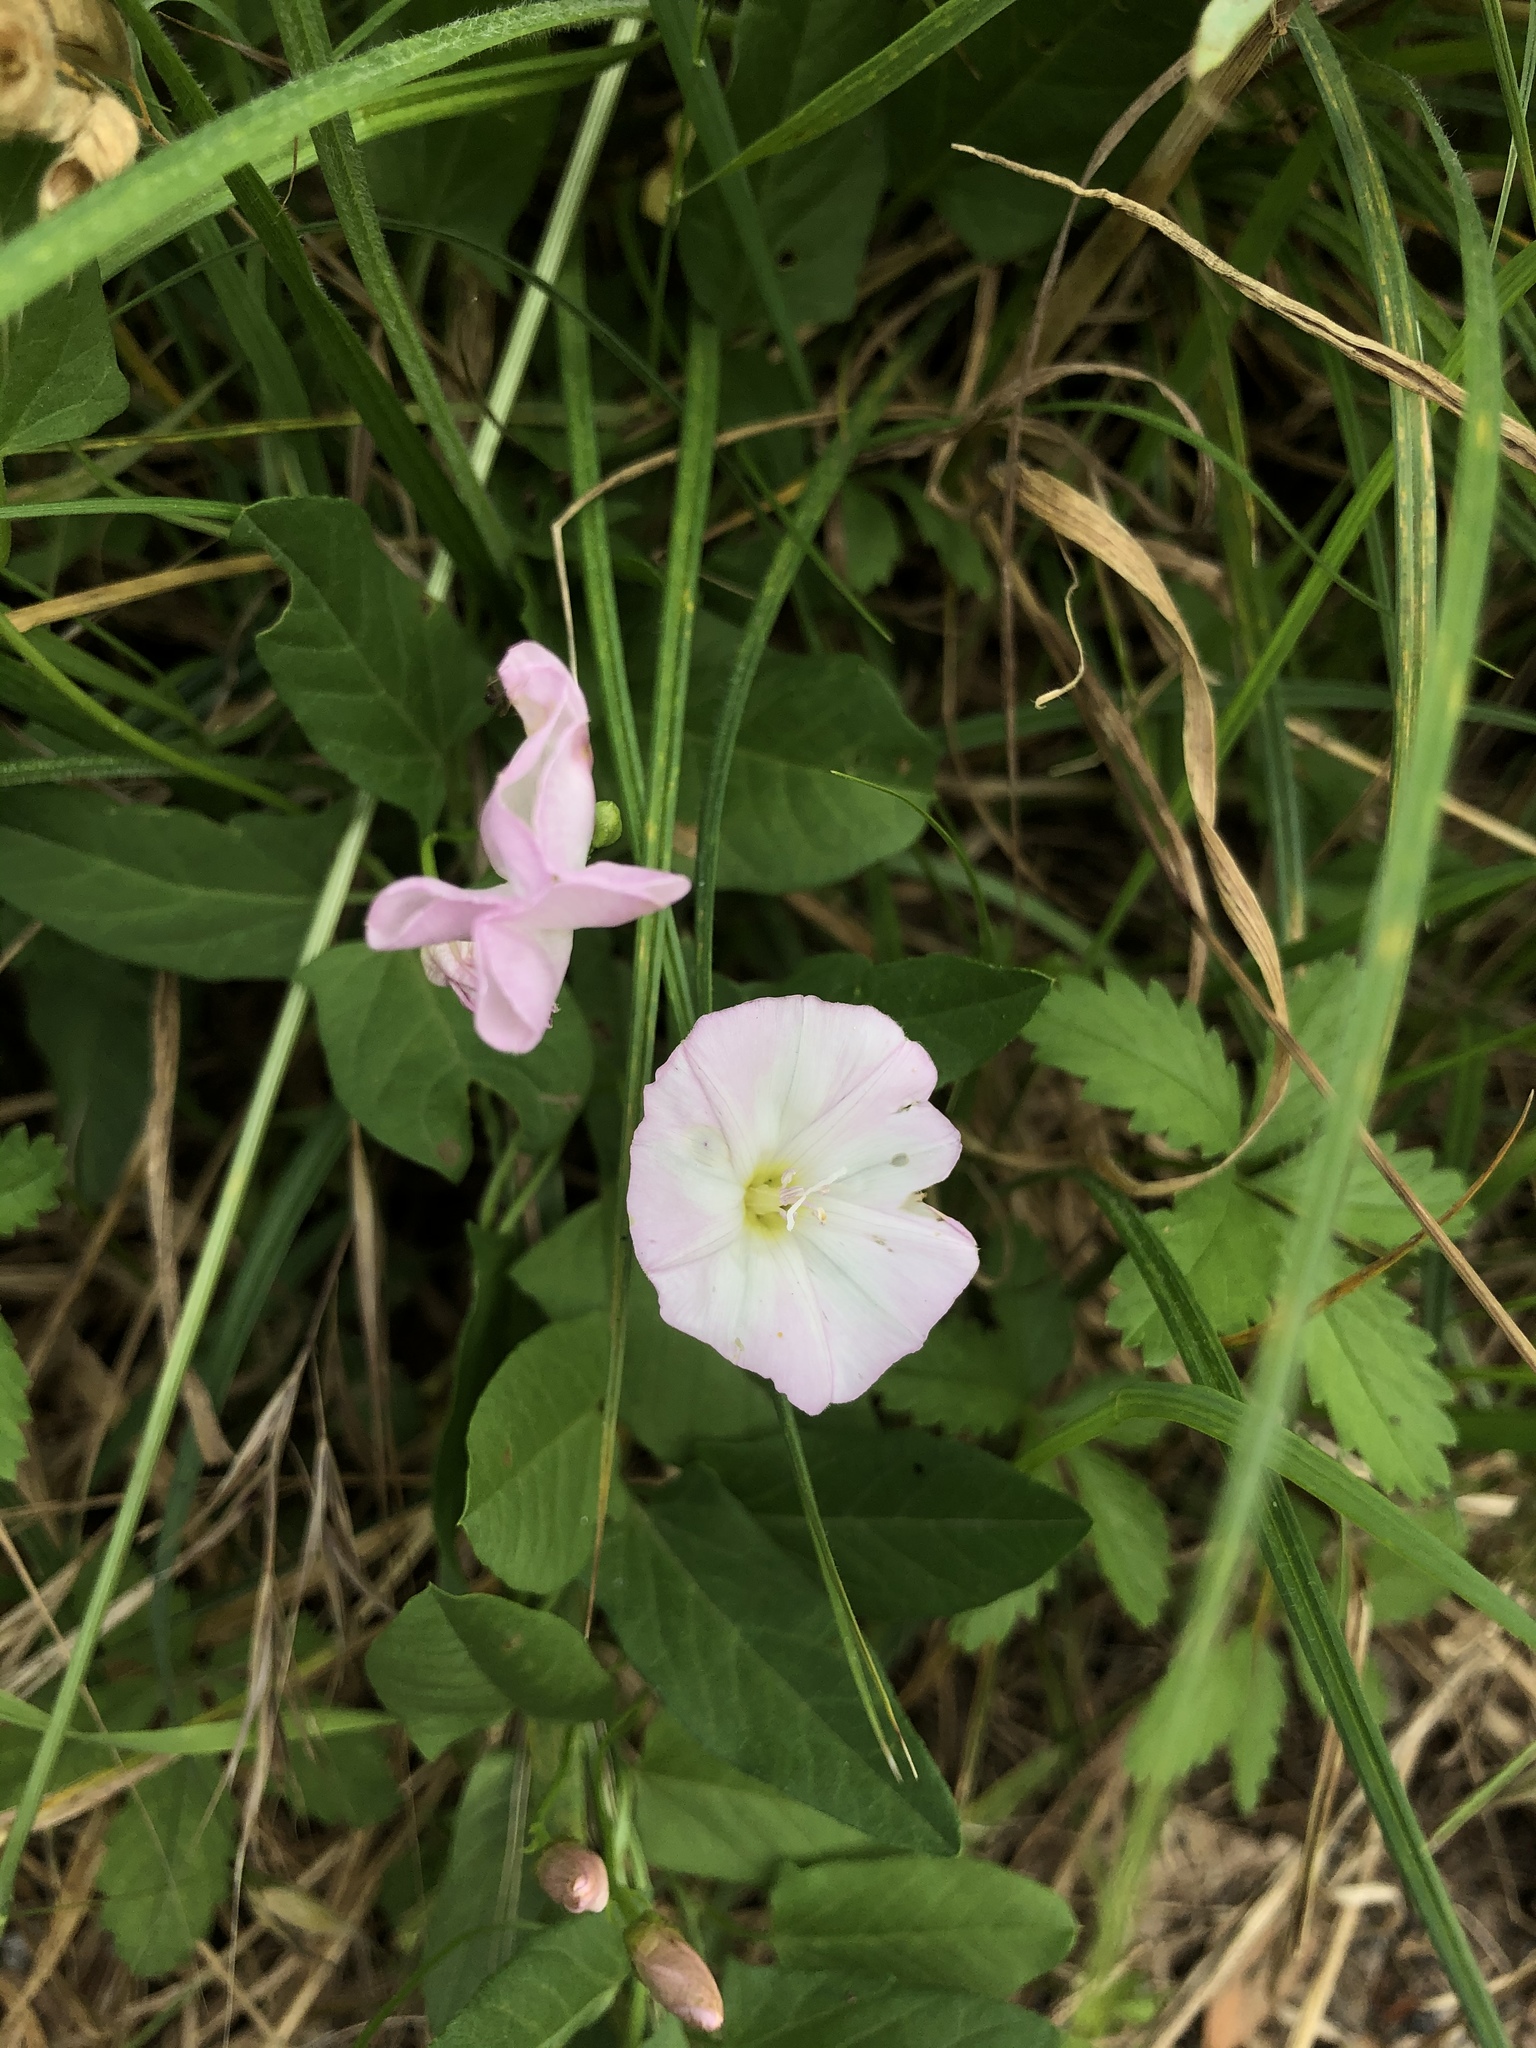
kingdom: Plantae
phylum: Tracheophyta
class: Magnoliopsida
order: Solanales
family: Convolvulaceae
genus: Convolvulus
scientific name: Convolvulus arvensis
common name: Field bindweed
